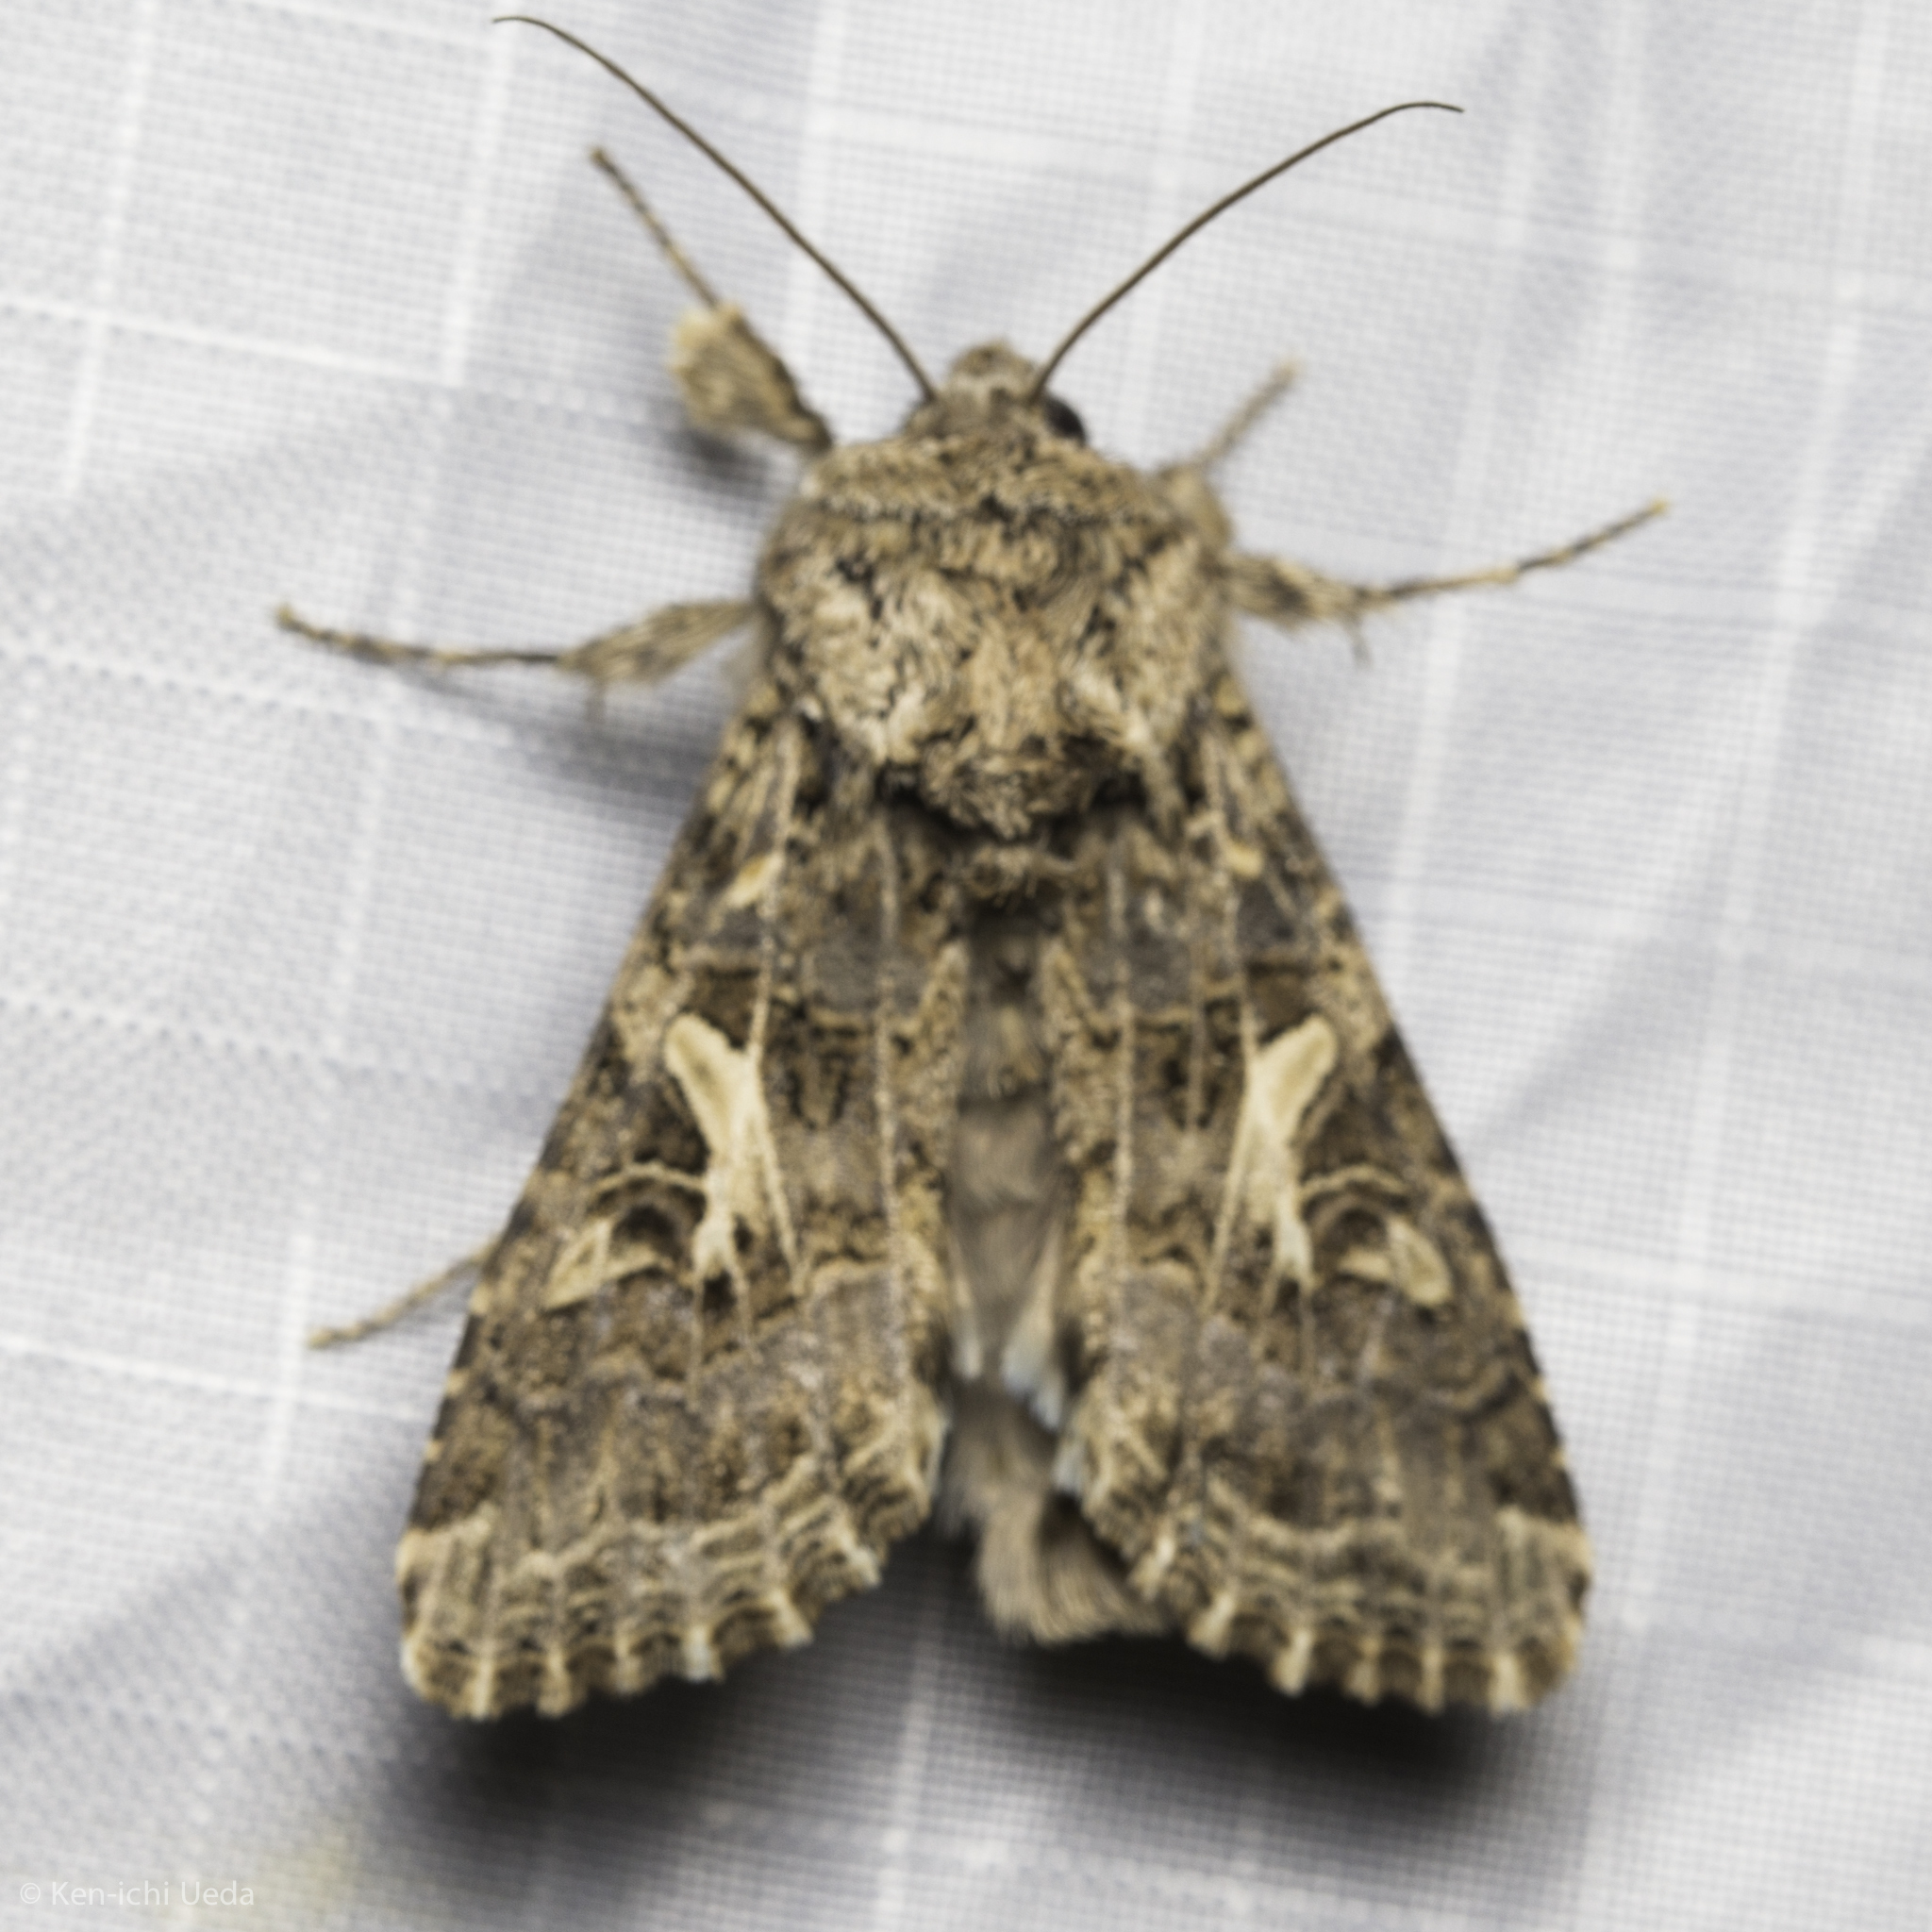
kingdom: Animalia
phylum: Arthropoda
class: Insecta
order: Lepidoptera
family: Noctuidae
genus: Spodoptera
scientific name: Spodoptera praefica
